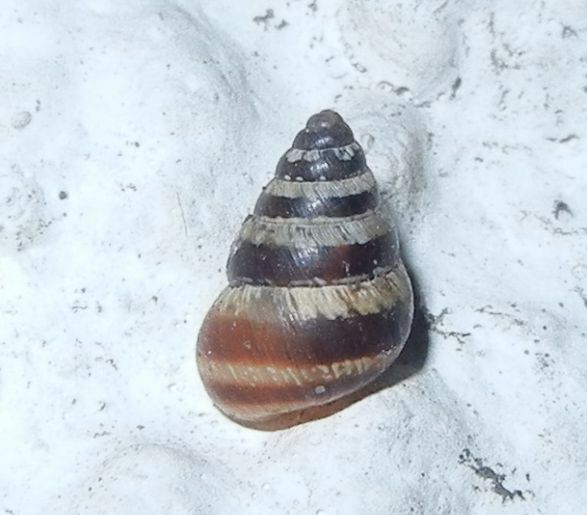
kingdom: Animalia
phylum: Mollusca
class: Gastropoda
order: Stylommatophora
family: Geomitridae
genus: Cochlicella
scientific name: Cochlicella barbara
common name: Potbellied helicellid
